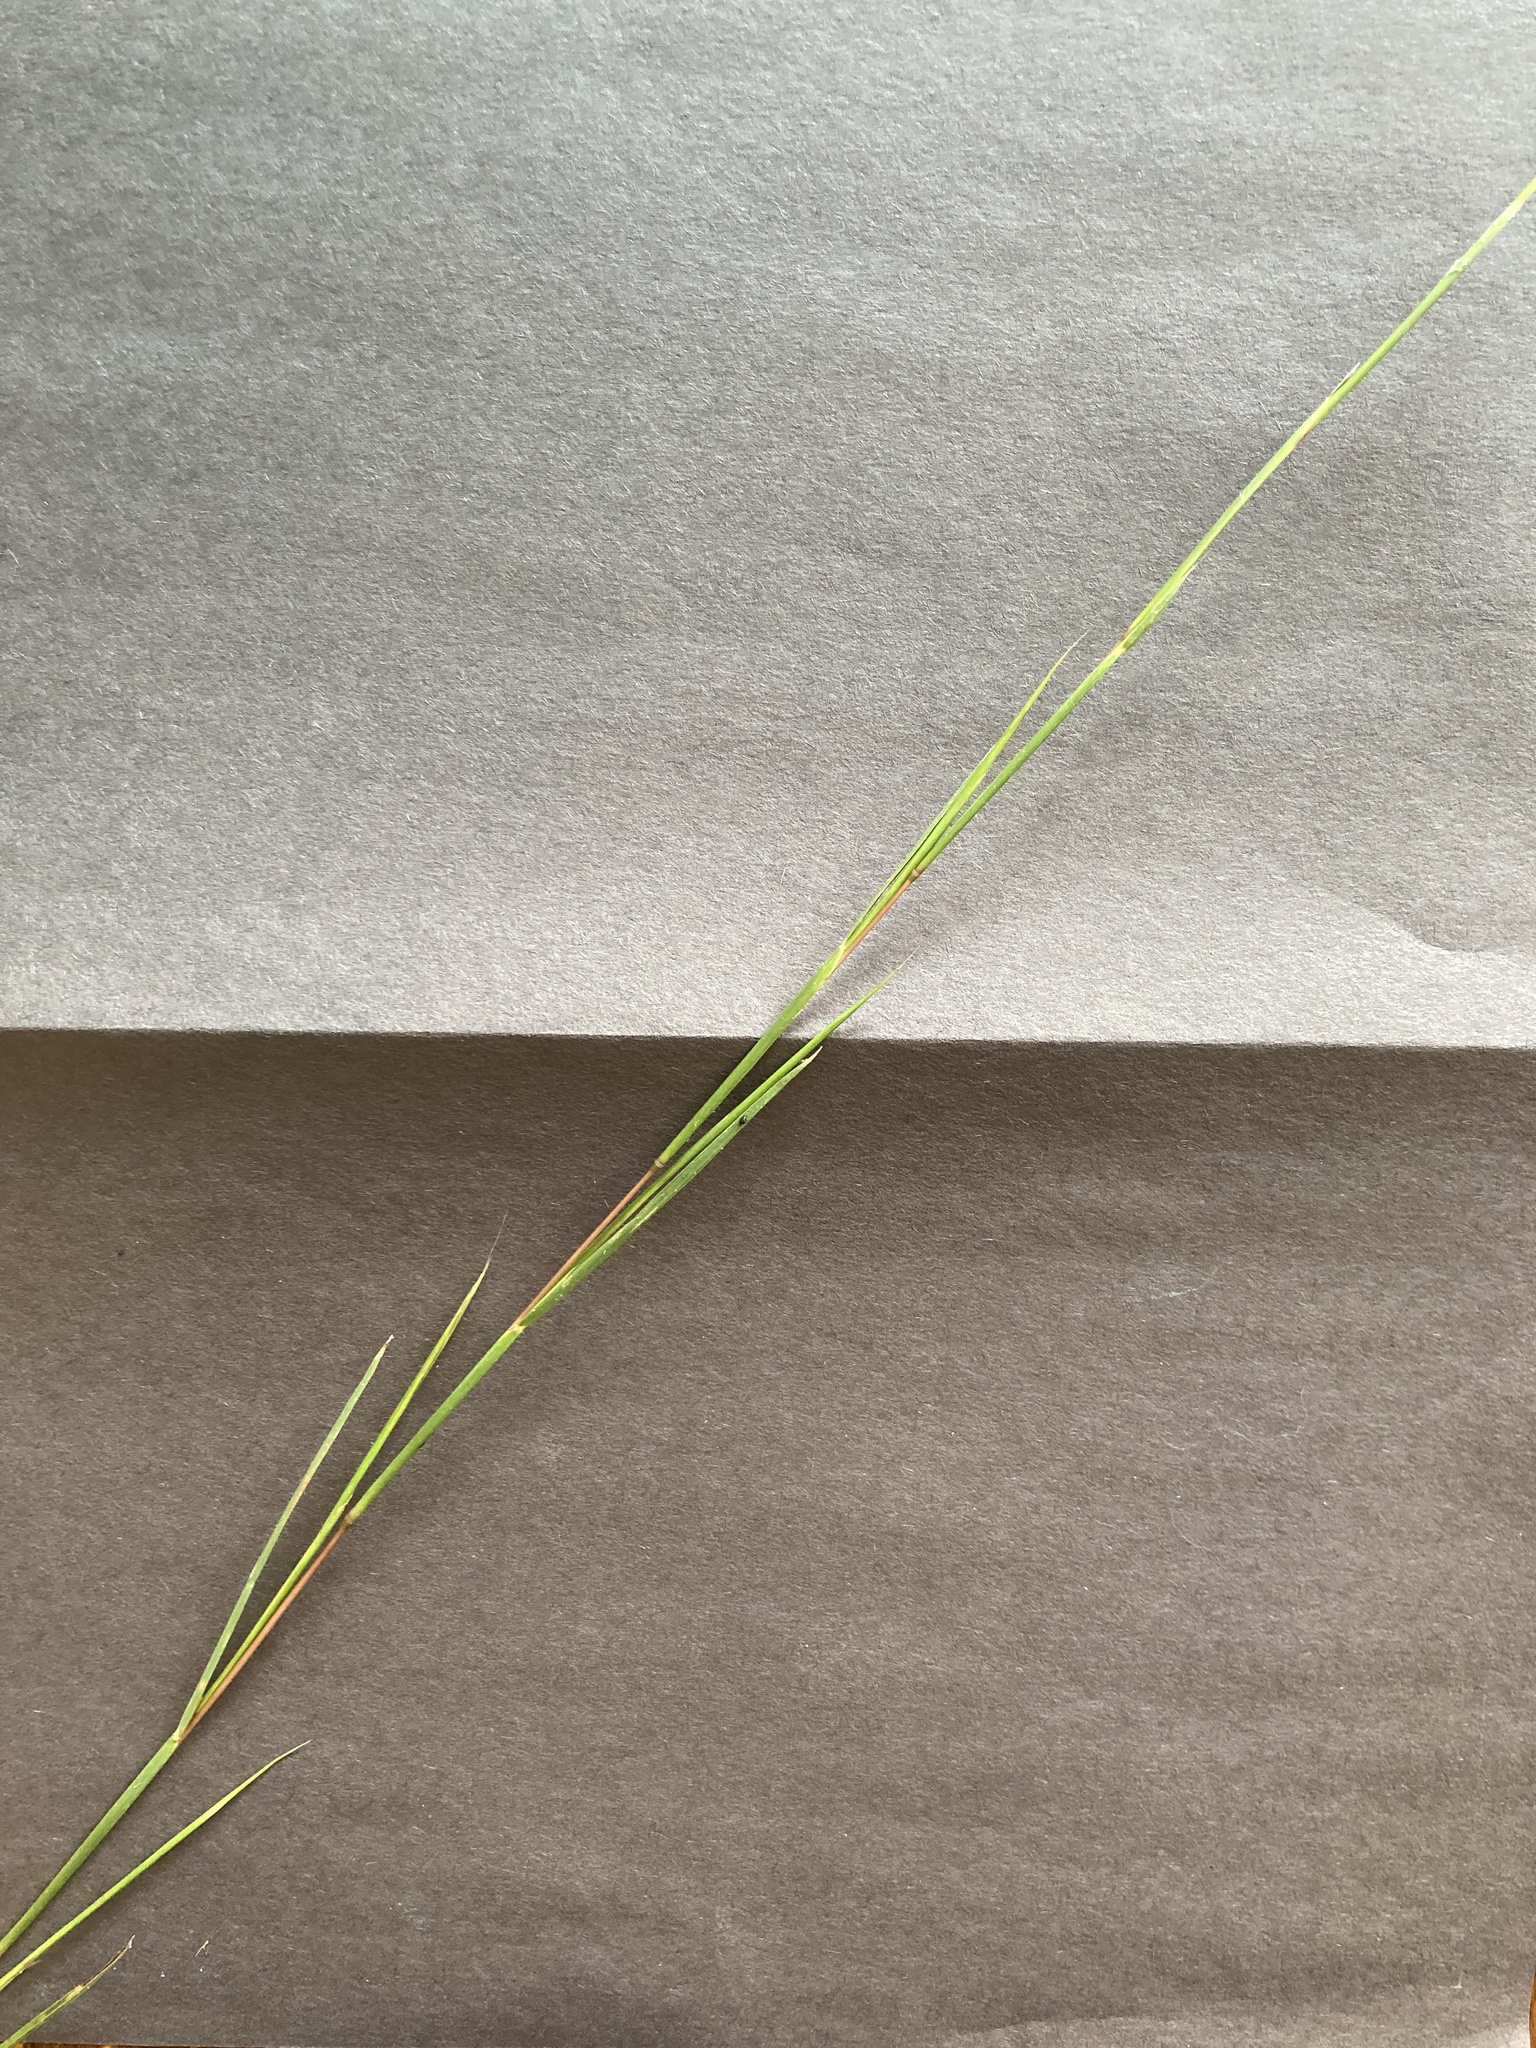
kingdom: Plantae
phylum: Tracheophyta
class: Liliopsida
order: Poales
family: Poaceae
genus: Schizachyrium
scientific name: Schizachyrium scoparium
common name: Little bluestem
